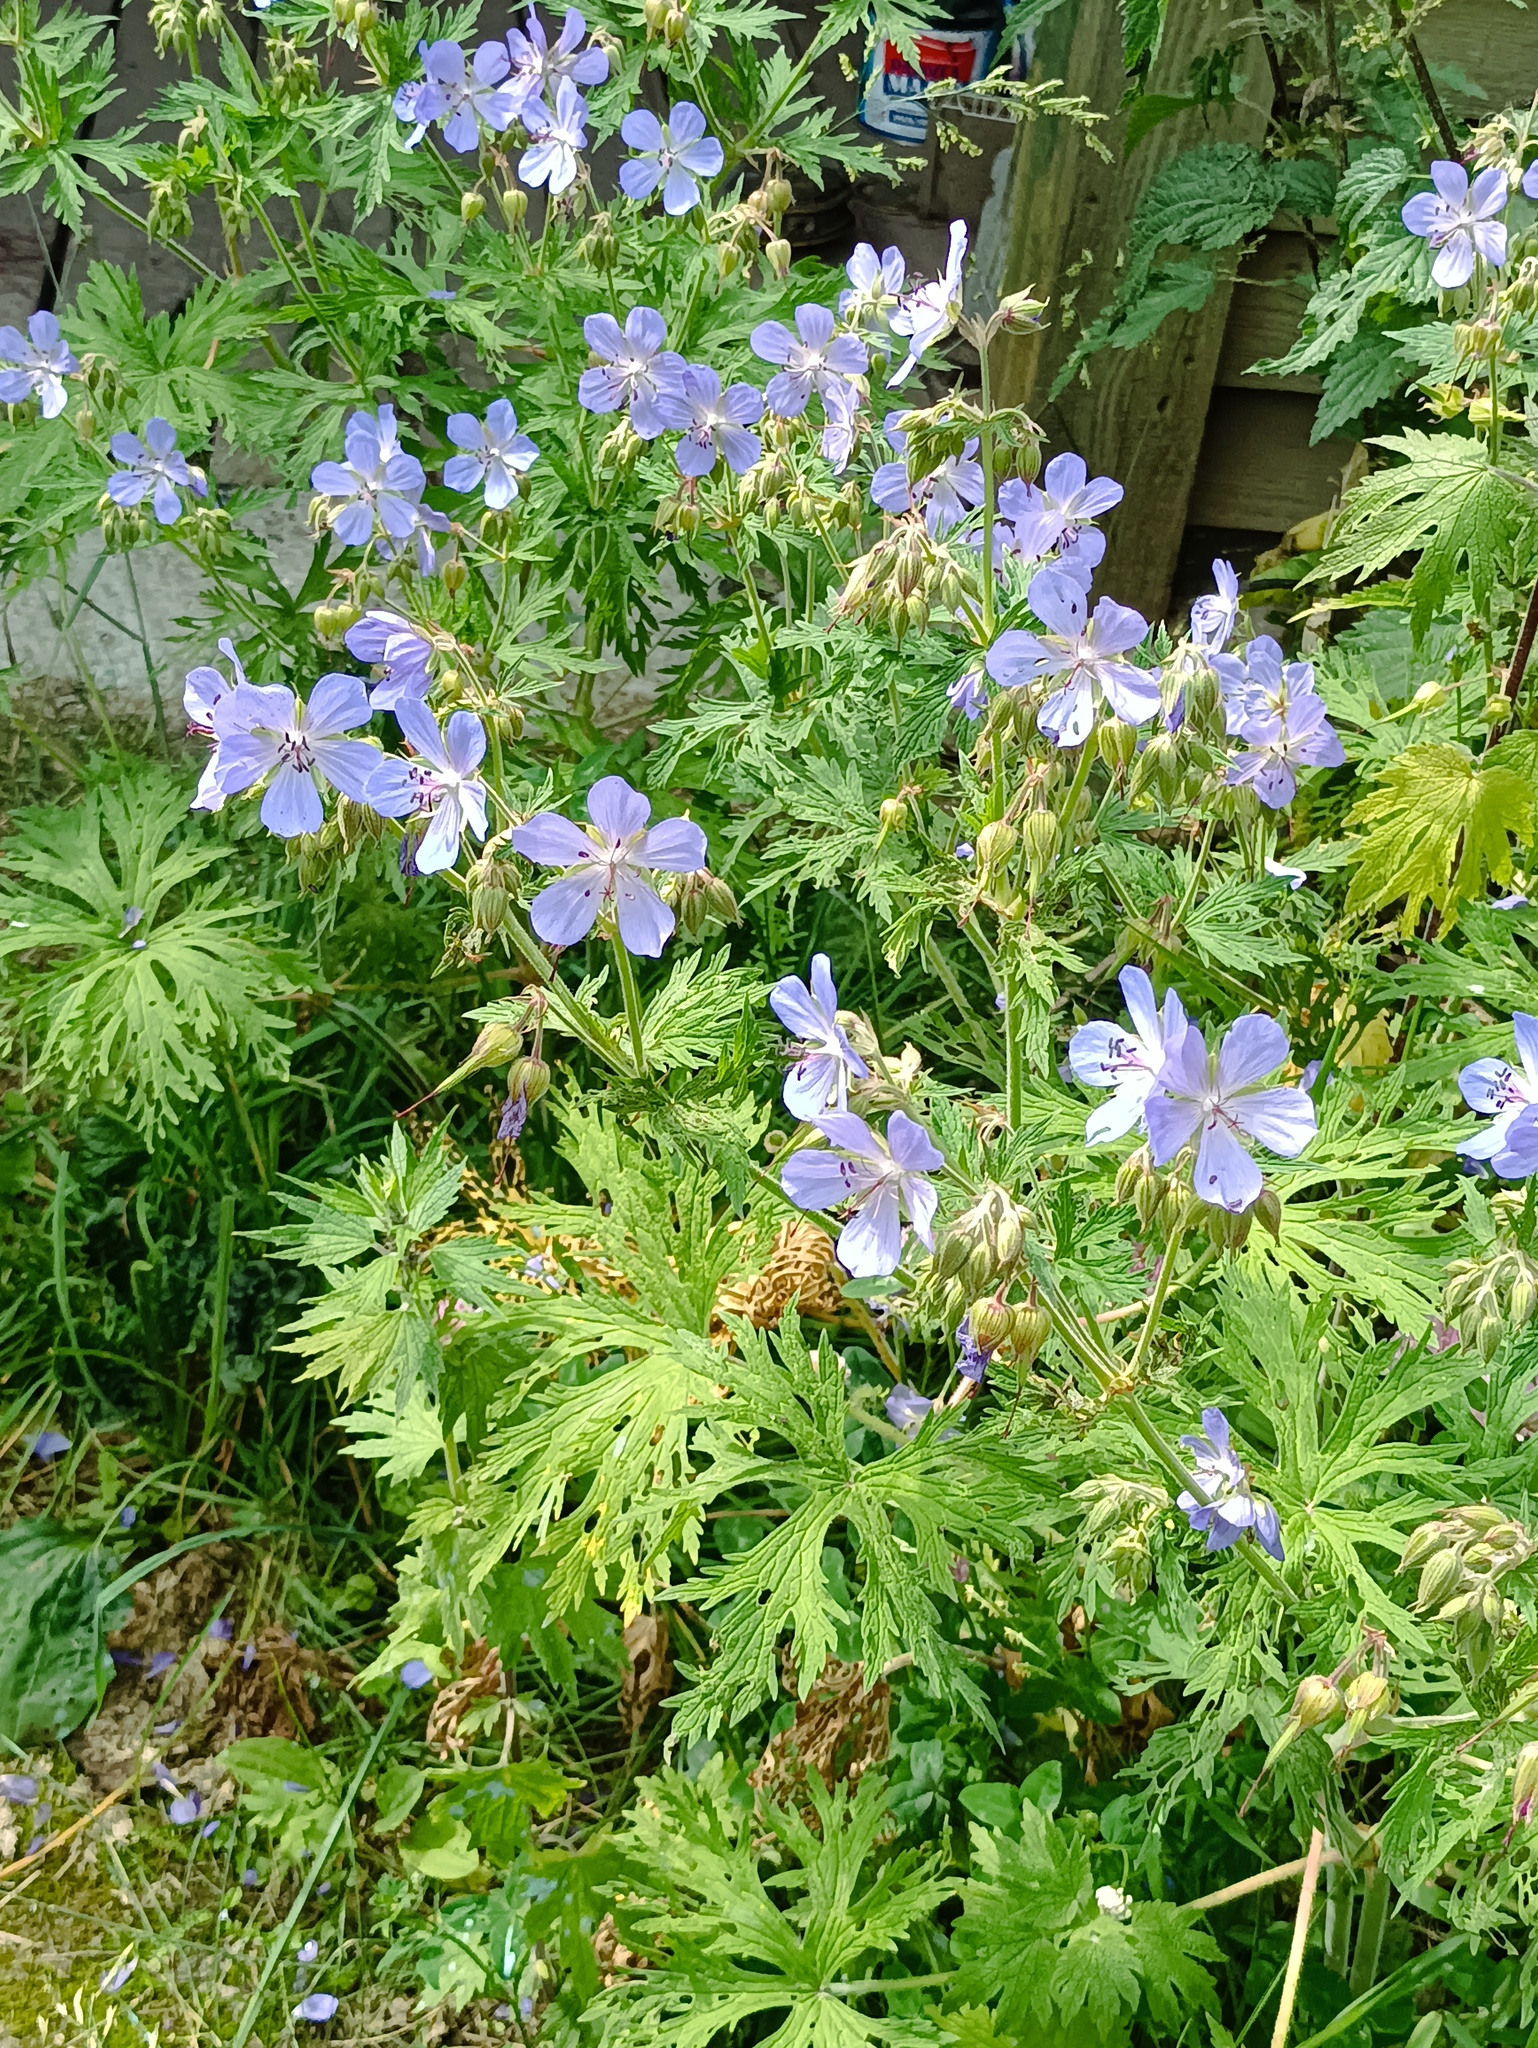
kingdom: Plantae
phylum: Tracheophyta
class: Magnoliopsida
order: Geraniales
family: Geraniaceae
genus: Geranium
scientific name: Geranium pratense
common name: Meadow crane's-bill
